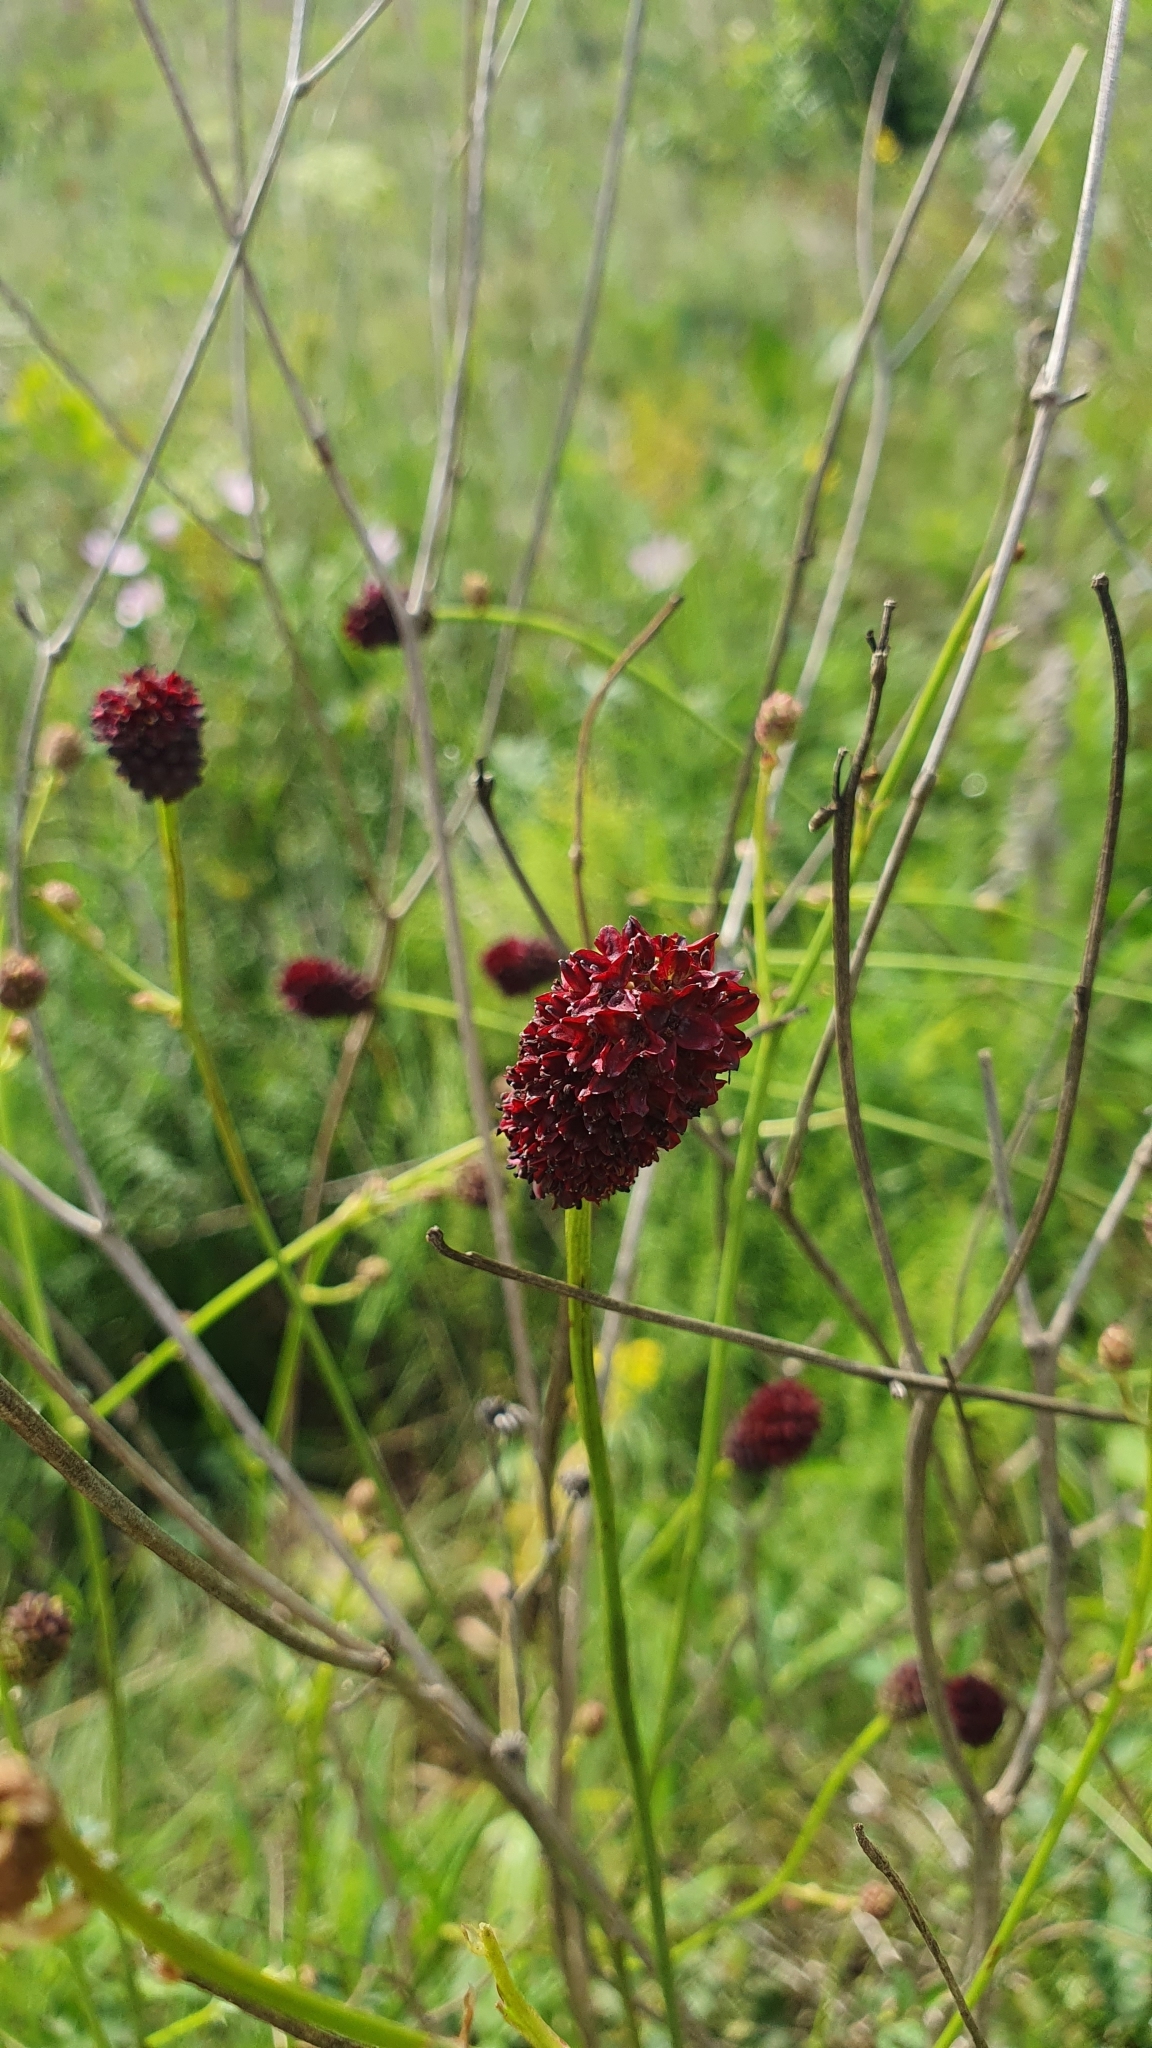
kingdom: Plantae
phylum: Tracheophyta
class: Magnoliopsida
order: Rosales
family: Rosaceae
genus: Sanguisorba
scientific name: Sanguisorba officinalis
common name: Great burnet
